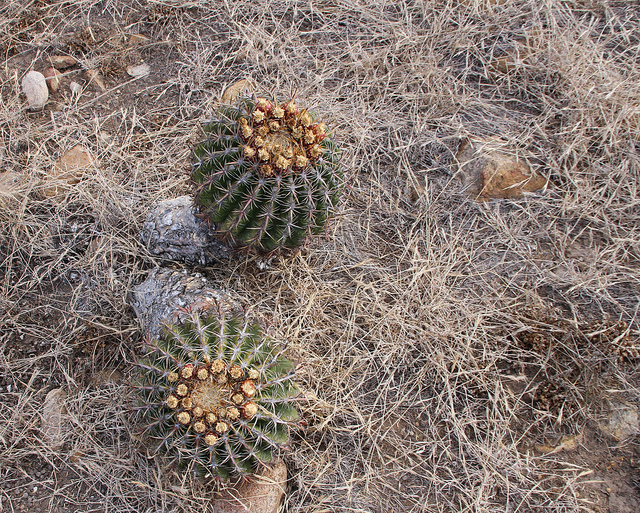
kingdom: Plantae
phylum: Tracheophyta
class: Magnoliopsida
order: Caryophyllales
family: Cactaceae
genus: Ferocactus
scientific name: Ferocactus viridescens
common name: San diego barrel cactus
